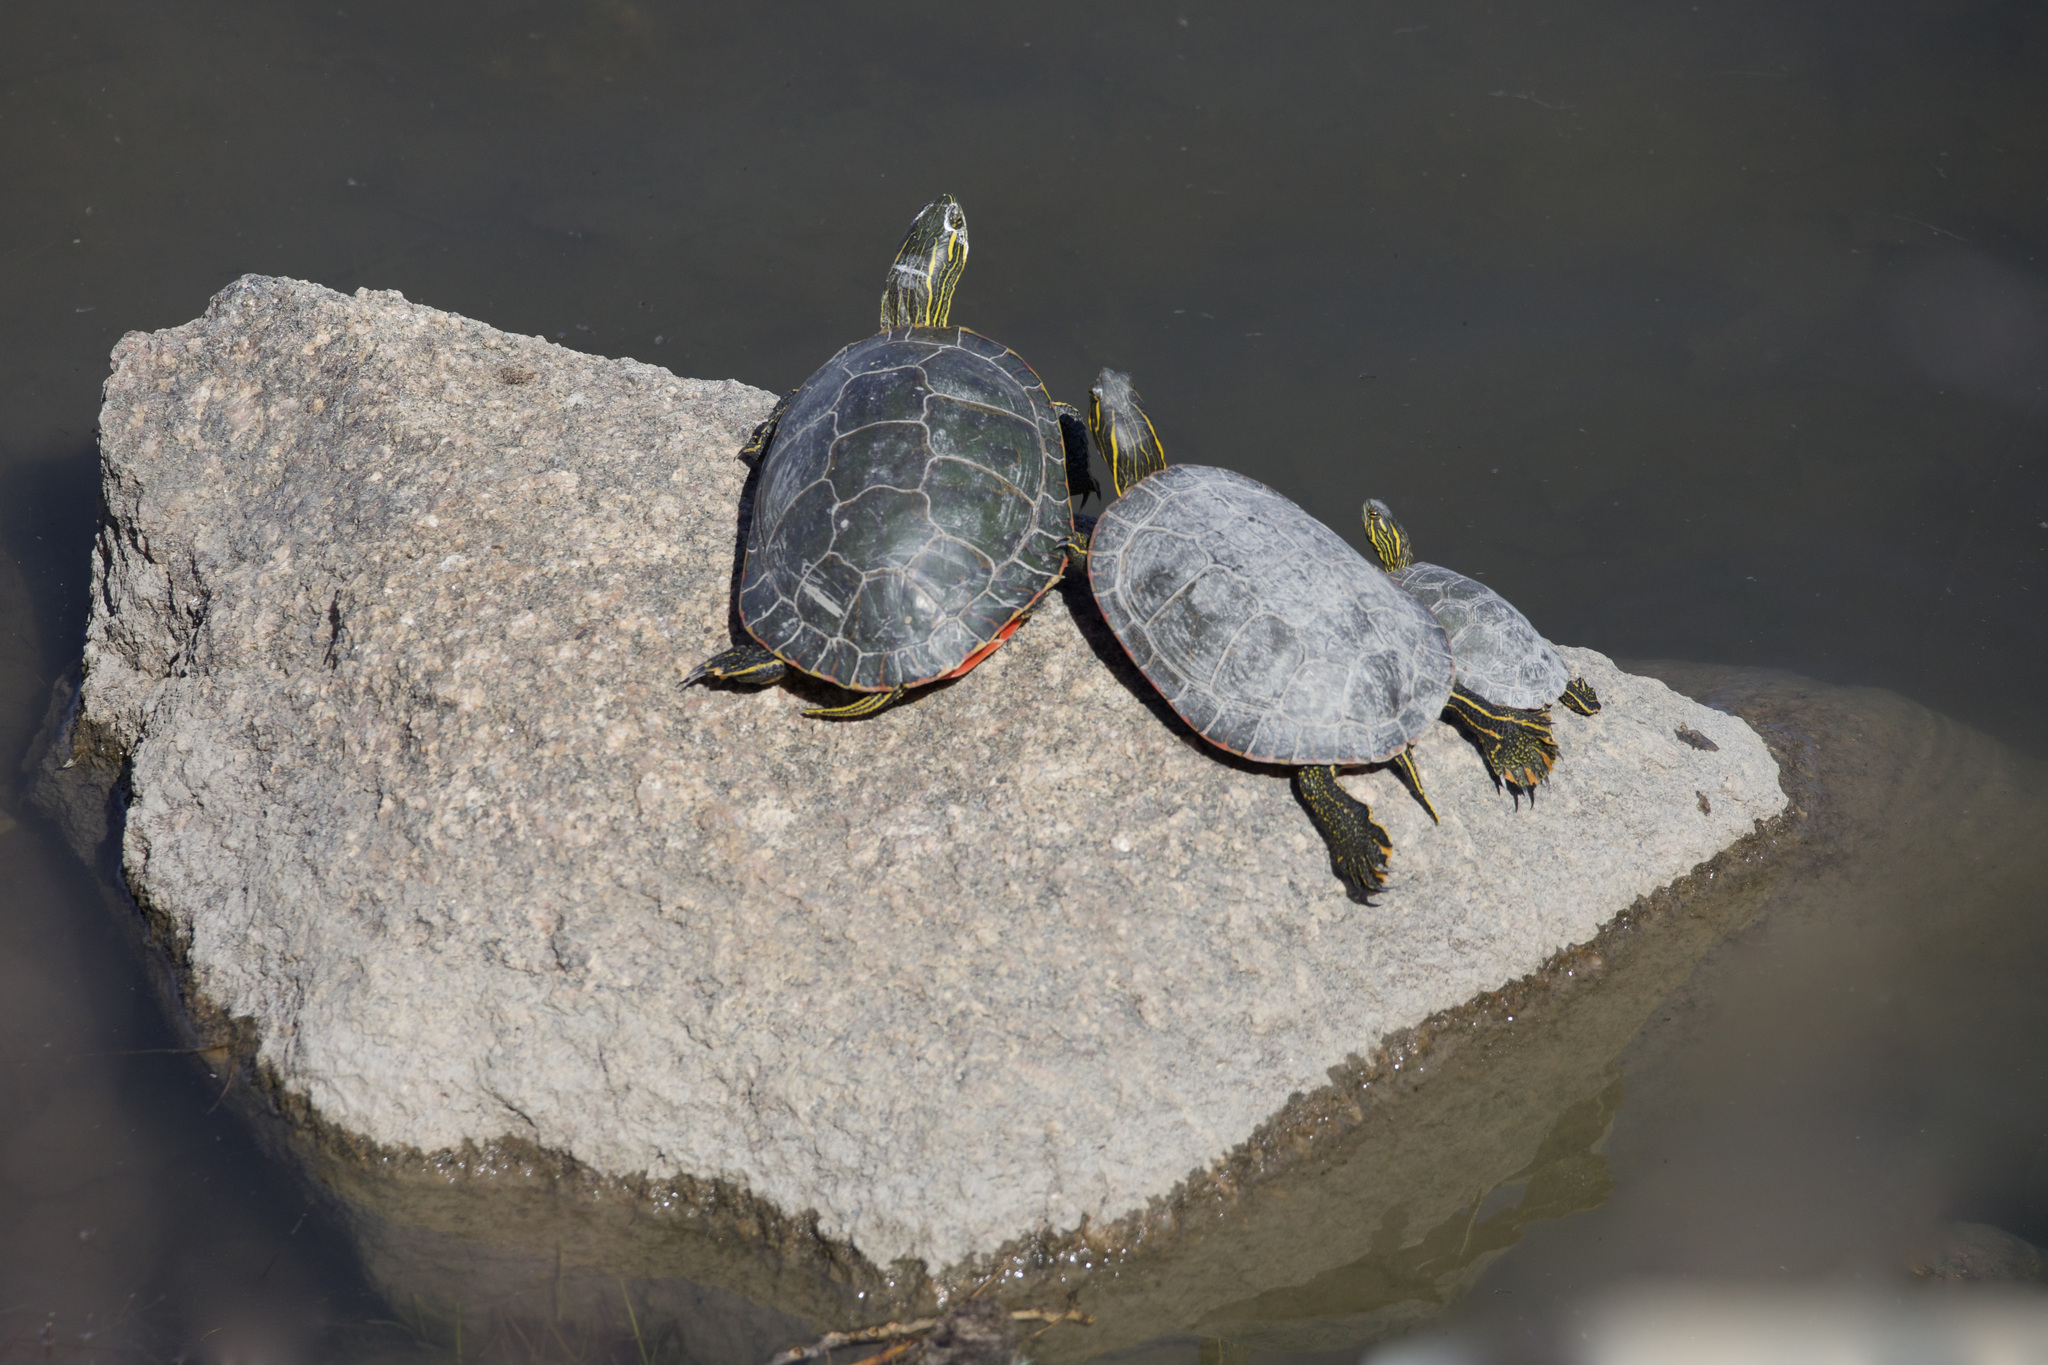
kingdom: Animalia
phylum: Chordata
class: Testudines
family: Emydidae
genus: Chrysemys
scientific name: Chrysemys picta
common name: Painted turtle
